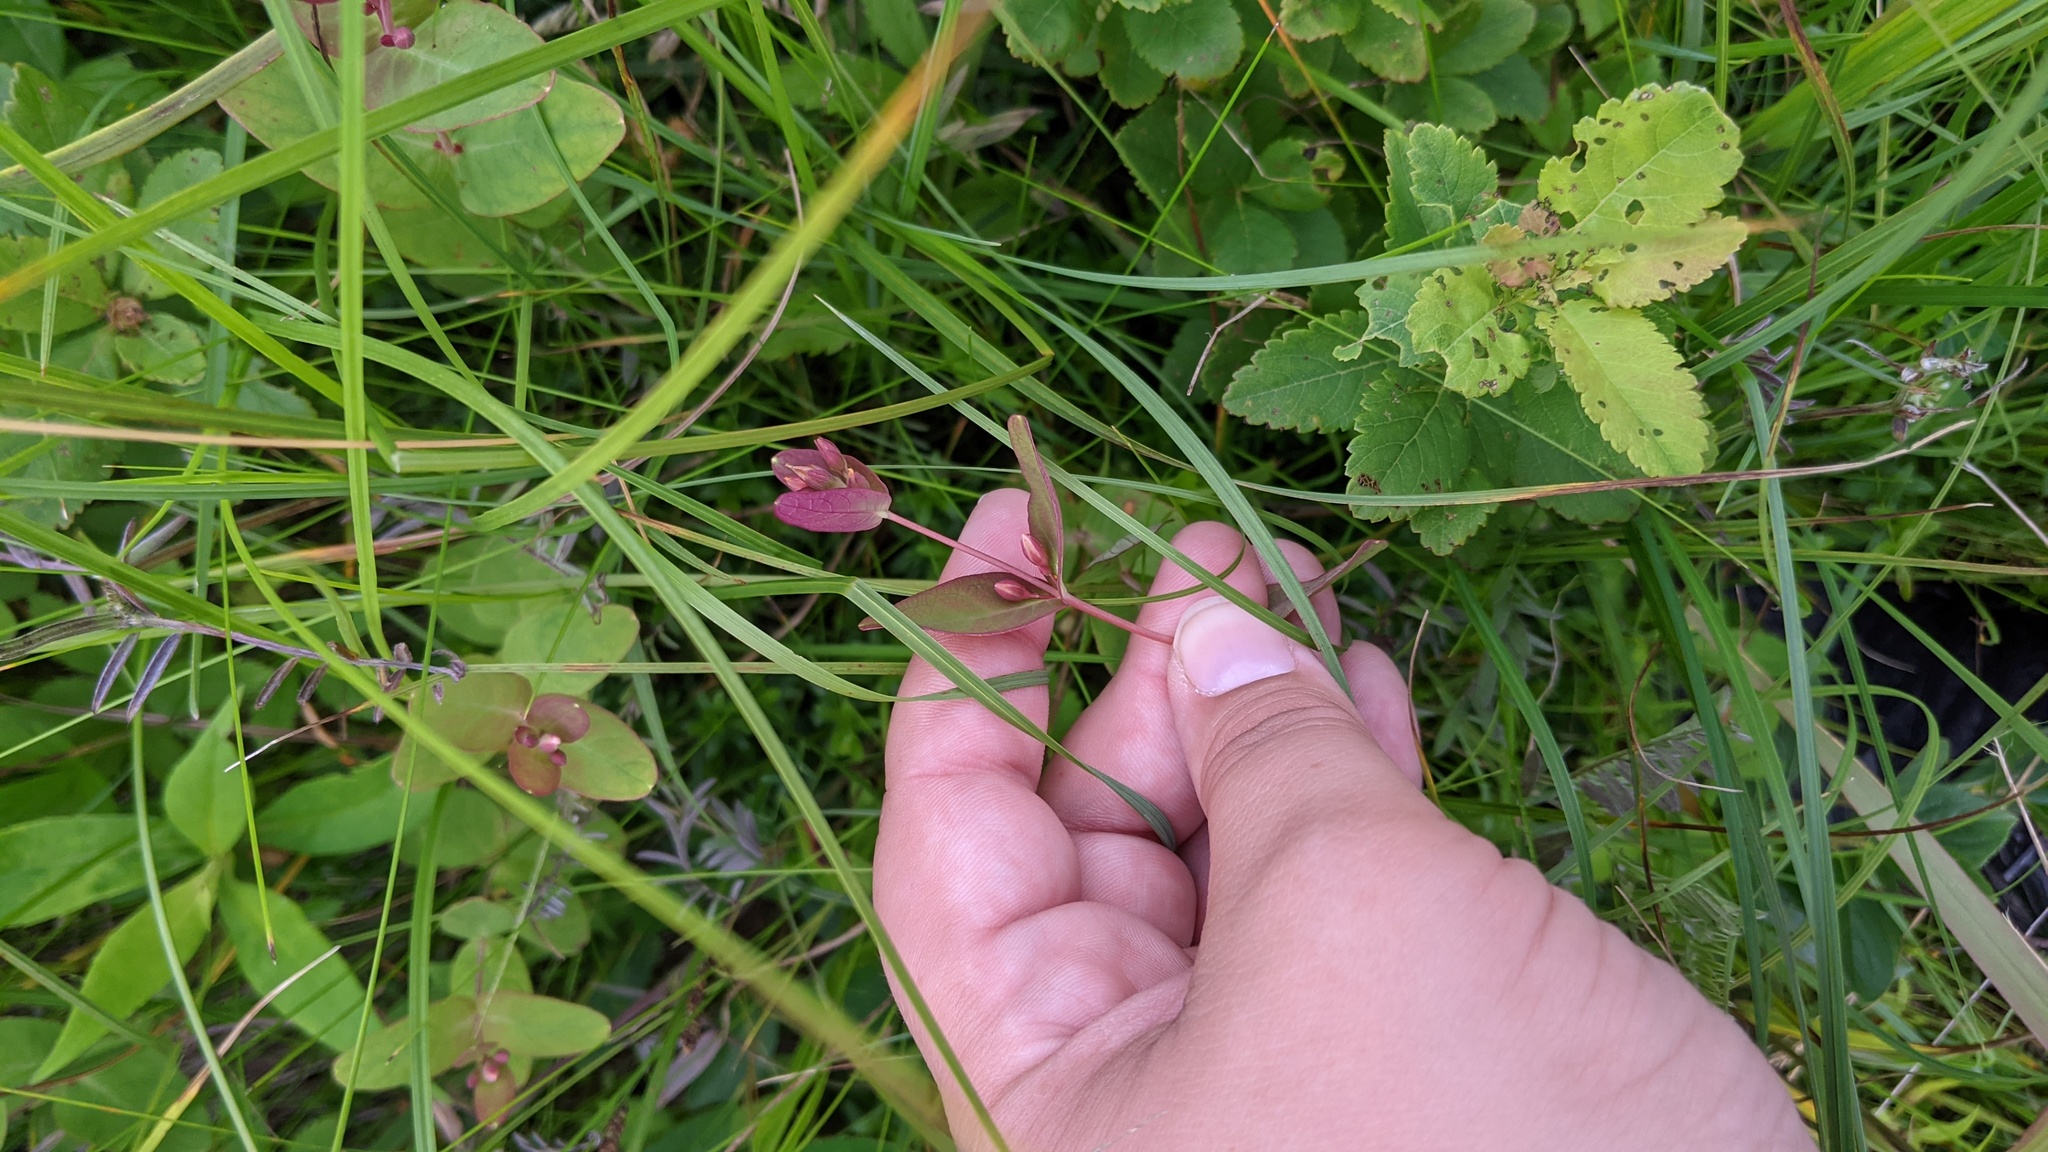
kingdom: Plantae
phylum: Tracheophyta
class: Magnoliopsida
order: Malpighiales
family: Hypericaceae
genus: Triadenum
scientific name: Triadenum fraseri
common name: Fraser's marsh st. johnswort
